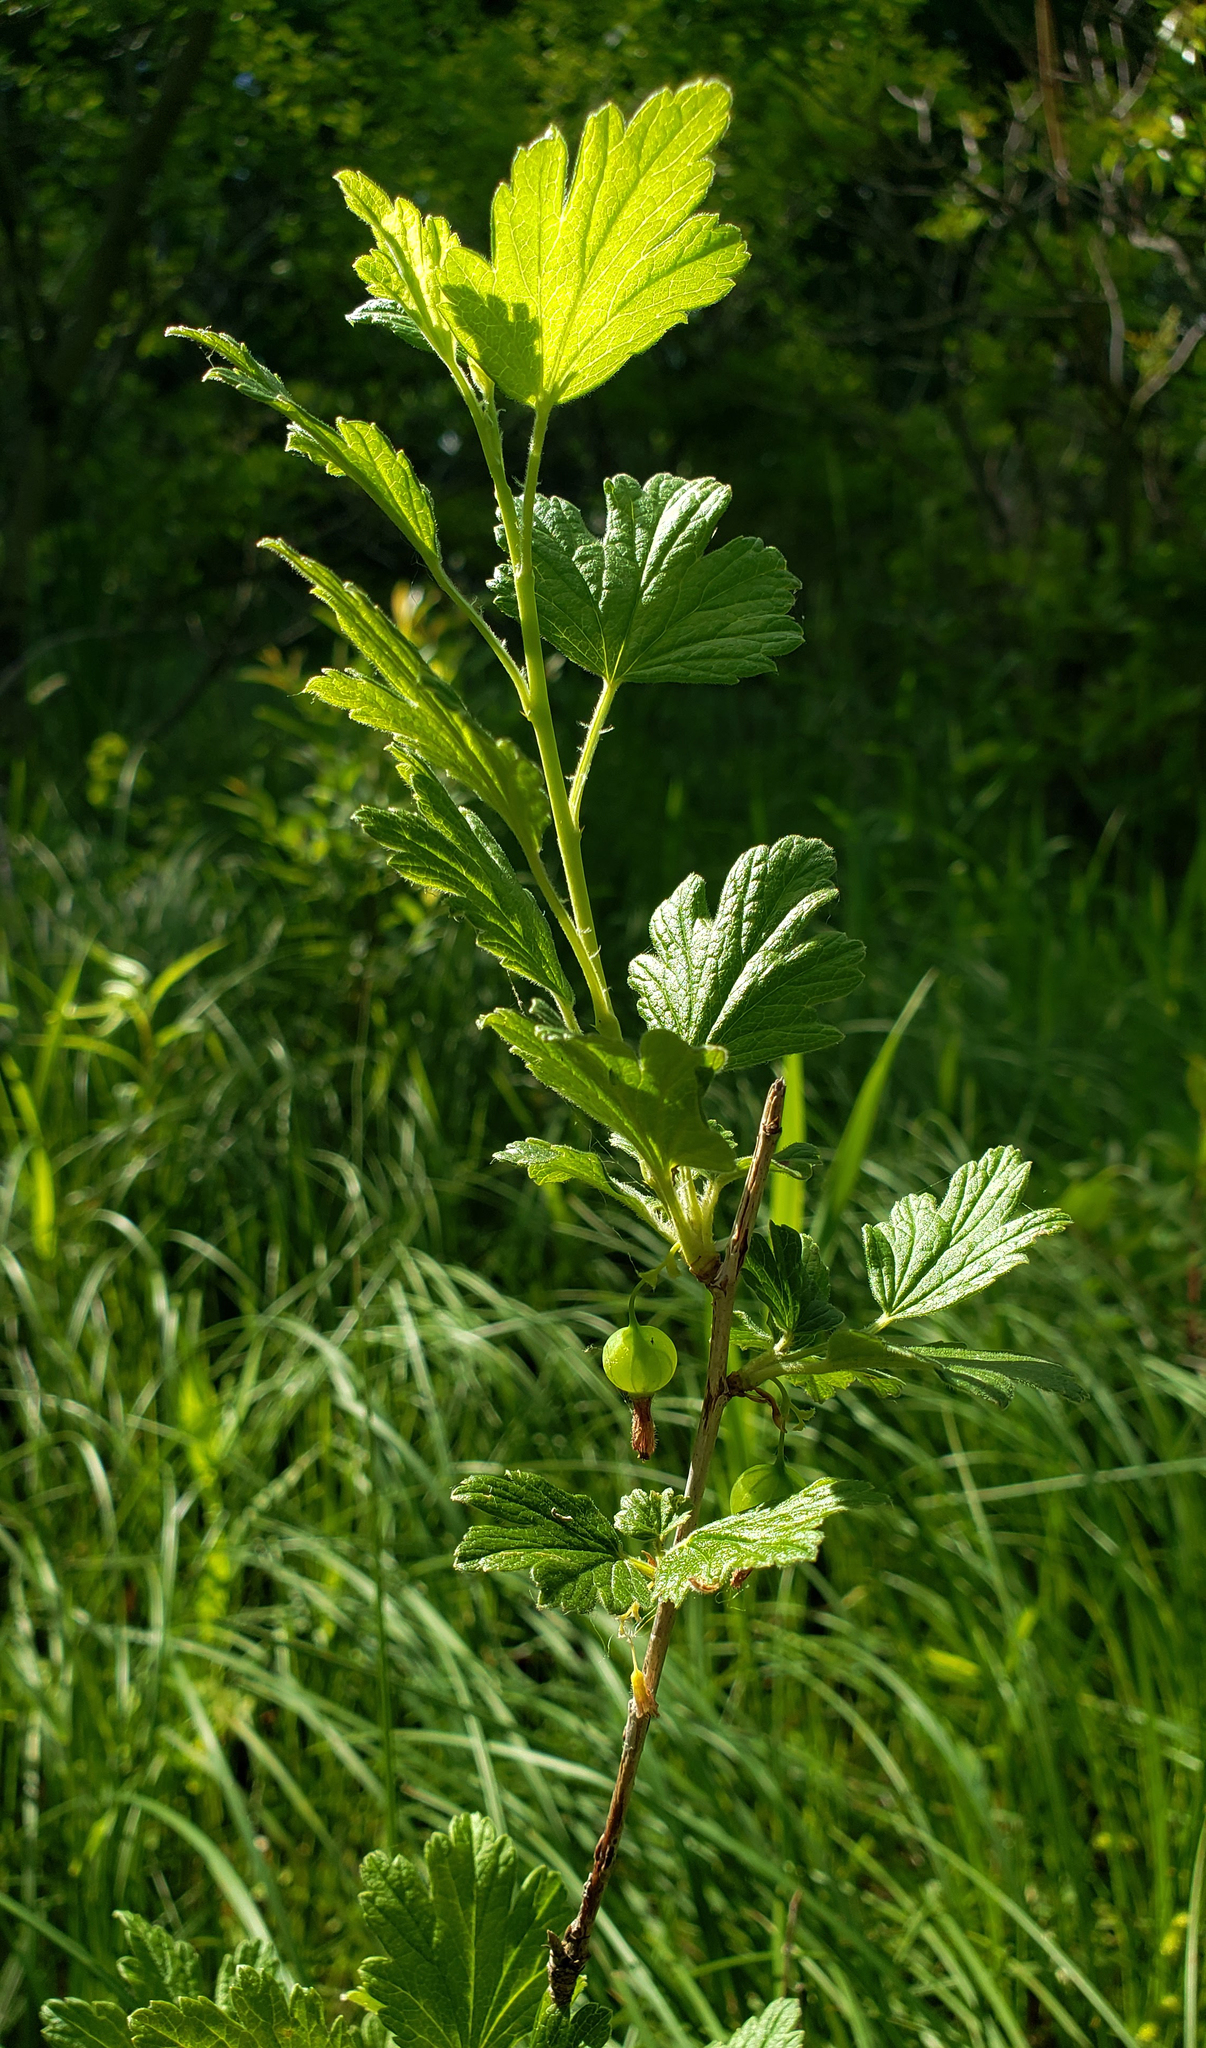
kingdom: Plantae
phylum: Tracheophyta
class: Magnoliopsida
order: Saxifragales
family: Grossulariaceae
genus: Ribes
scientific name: Ribes hirtellum
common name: Hairy gooseberry
